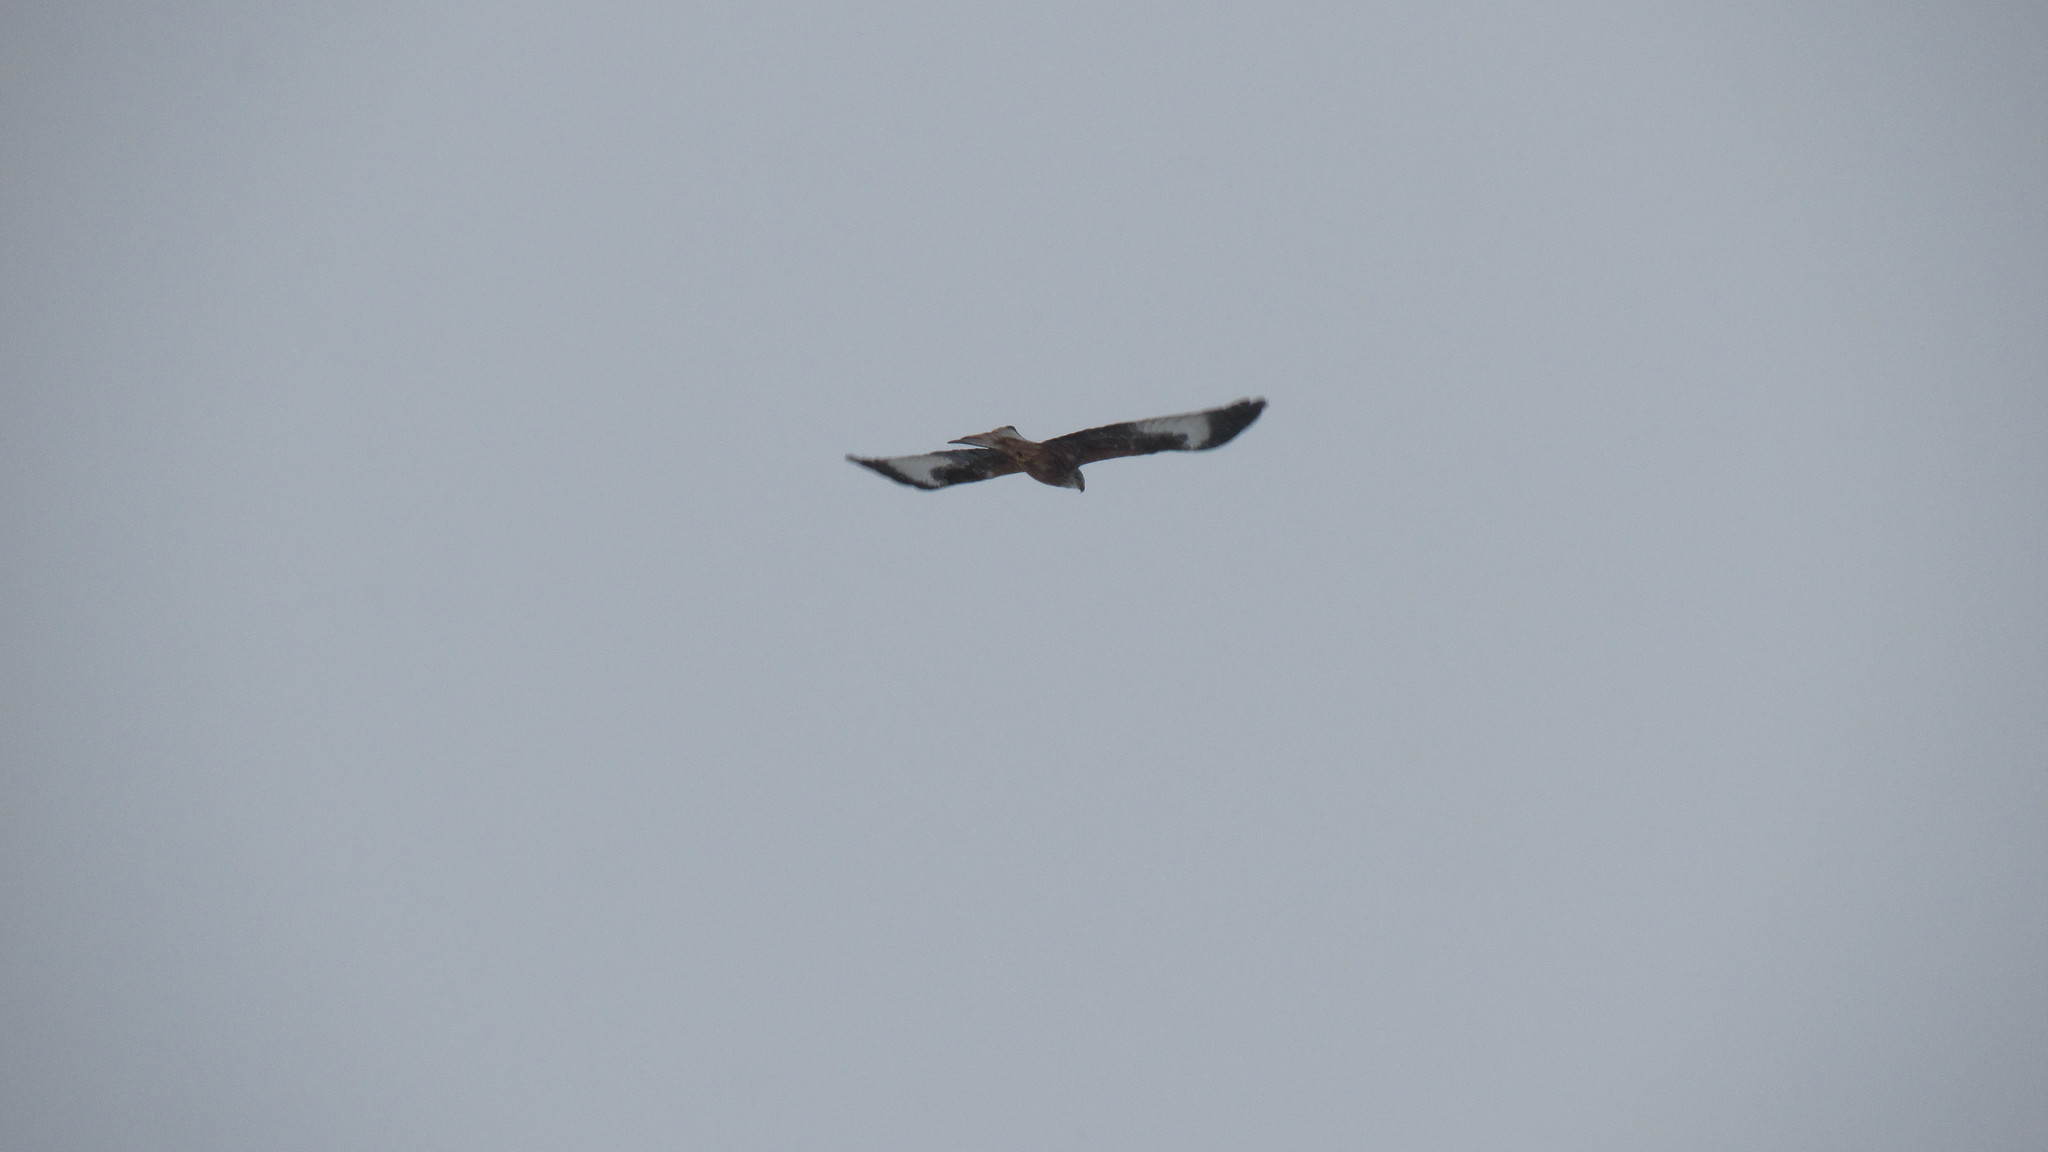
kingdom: Animalia
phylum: Chordata
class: Aves
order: Accipitriformes
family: Accipitridae
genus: Milvus
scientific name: Milvus milvus
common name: Red kite
